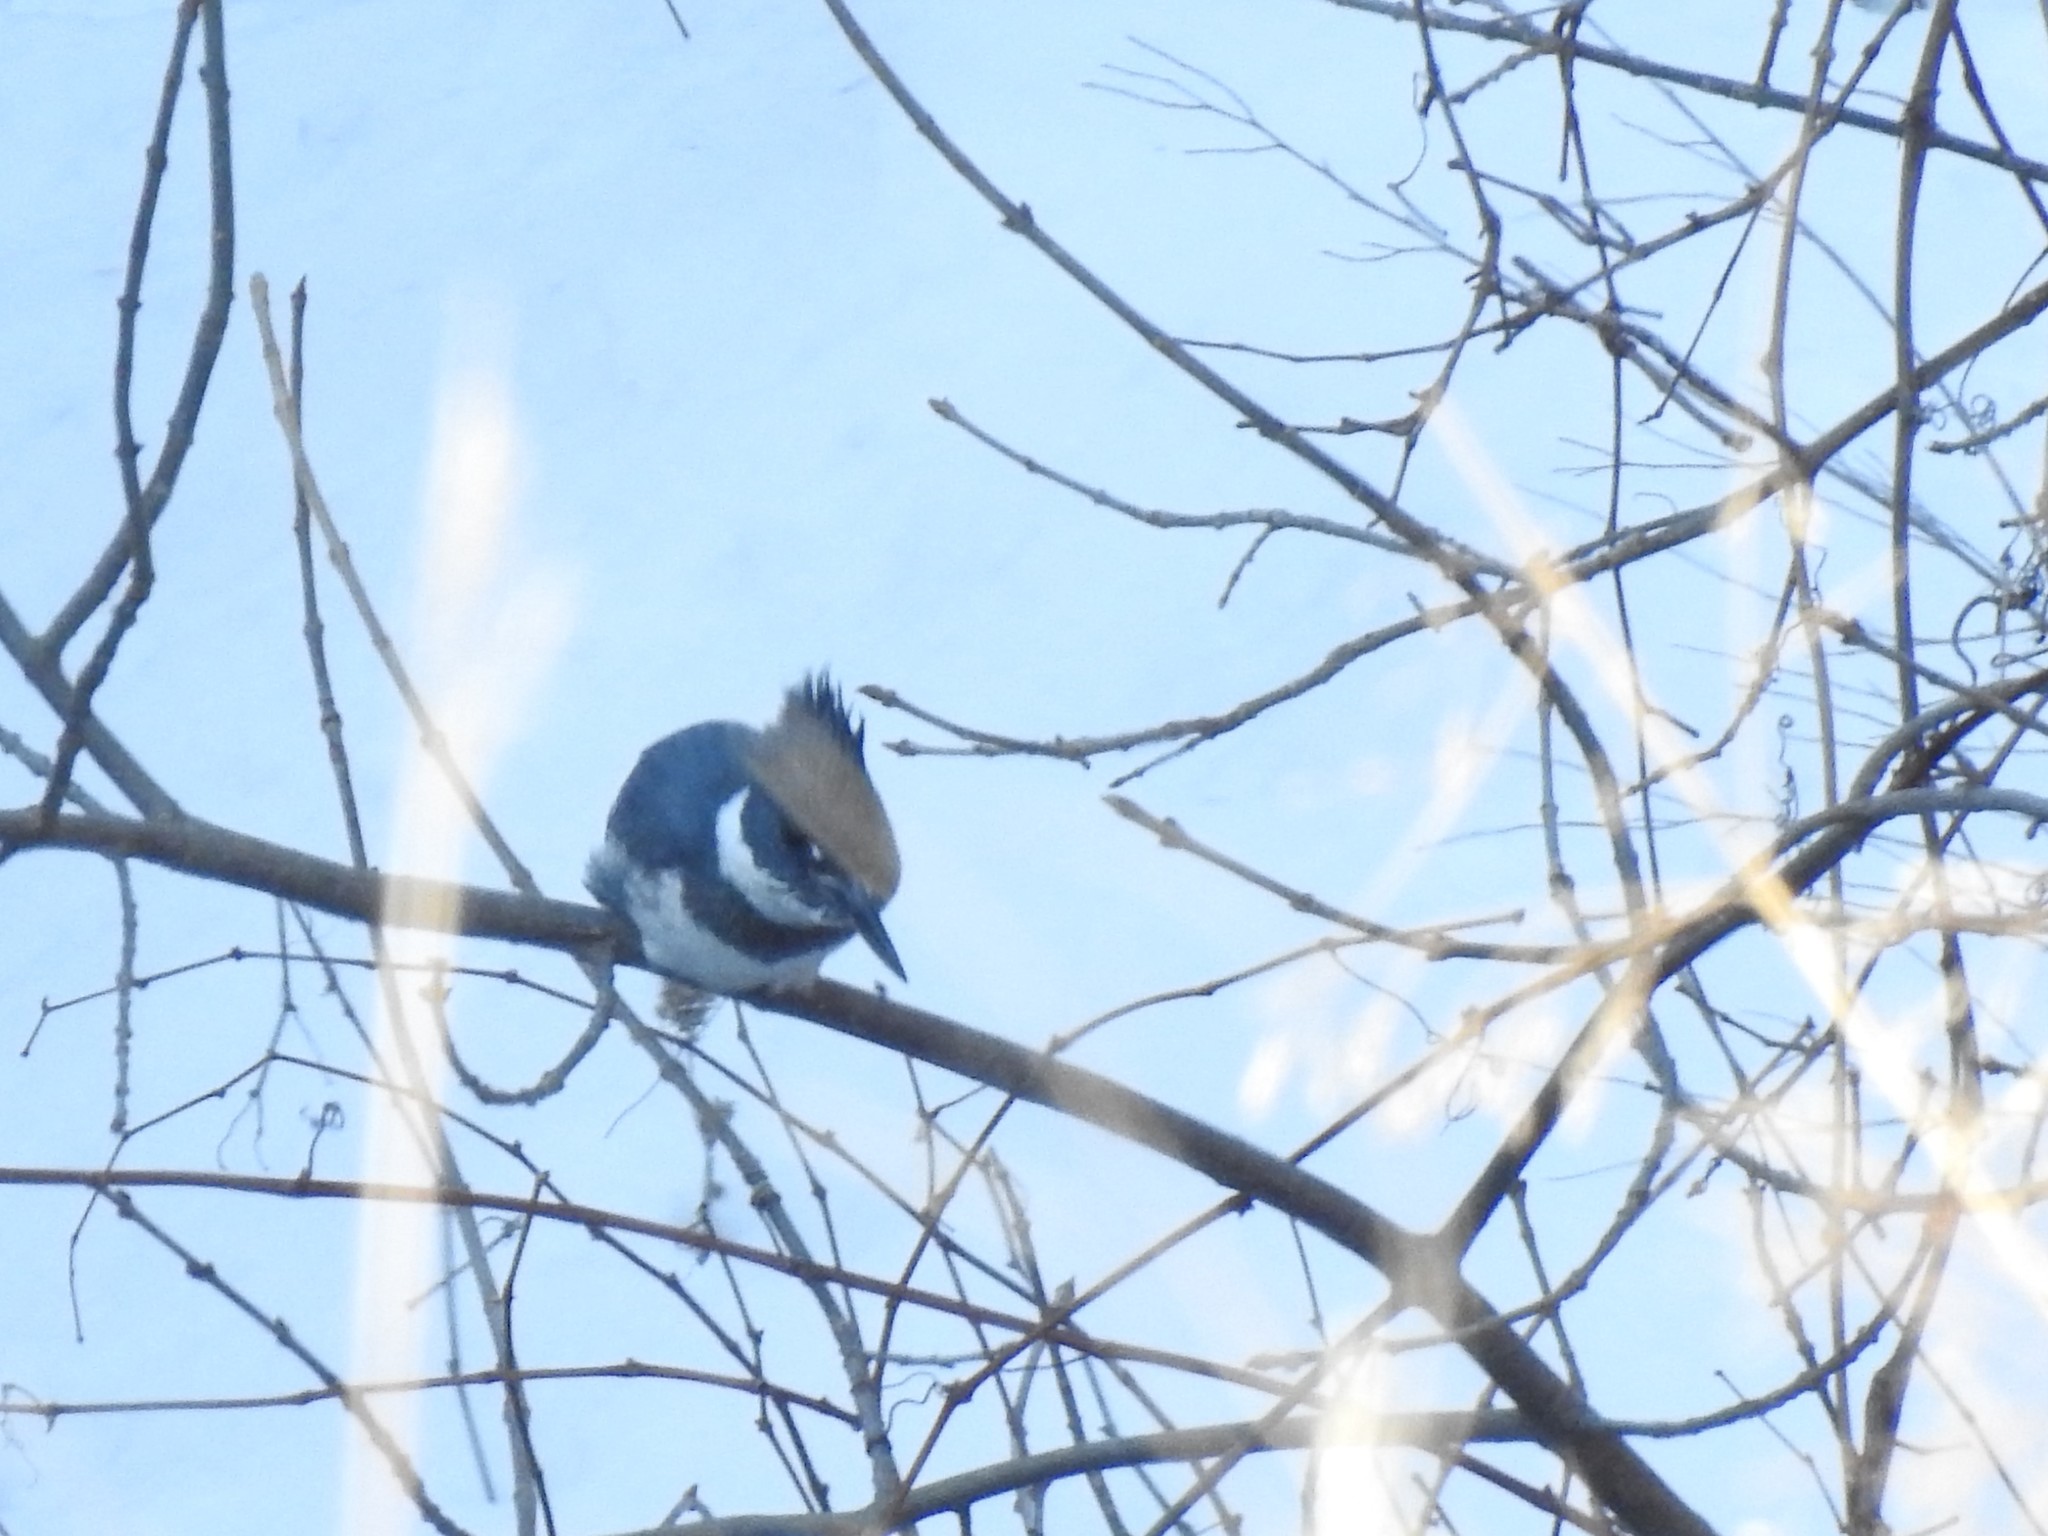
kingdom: Animalia
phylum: Chordata
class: Aves
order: Coraciiformes
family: Alcedinidae
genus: Megaceryle
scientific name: Megaceryle alcyon
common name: Belted kingfisher
